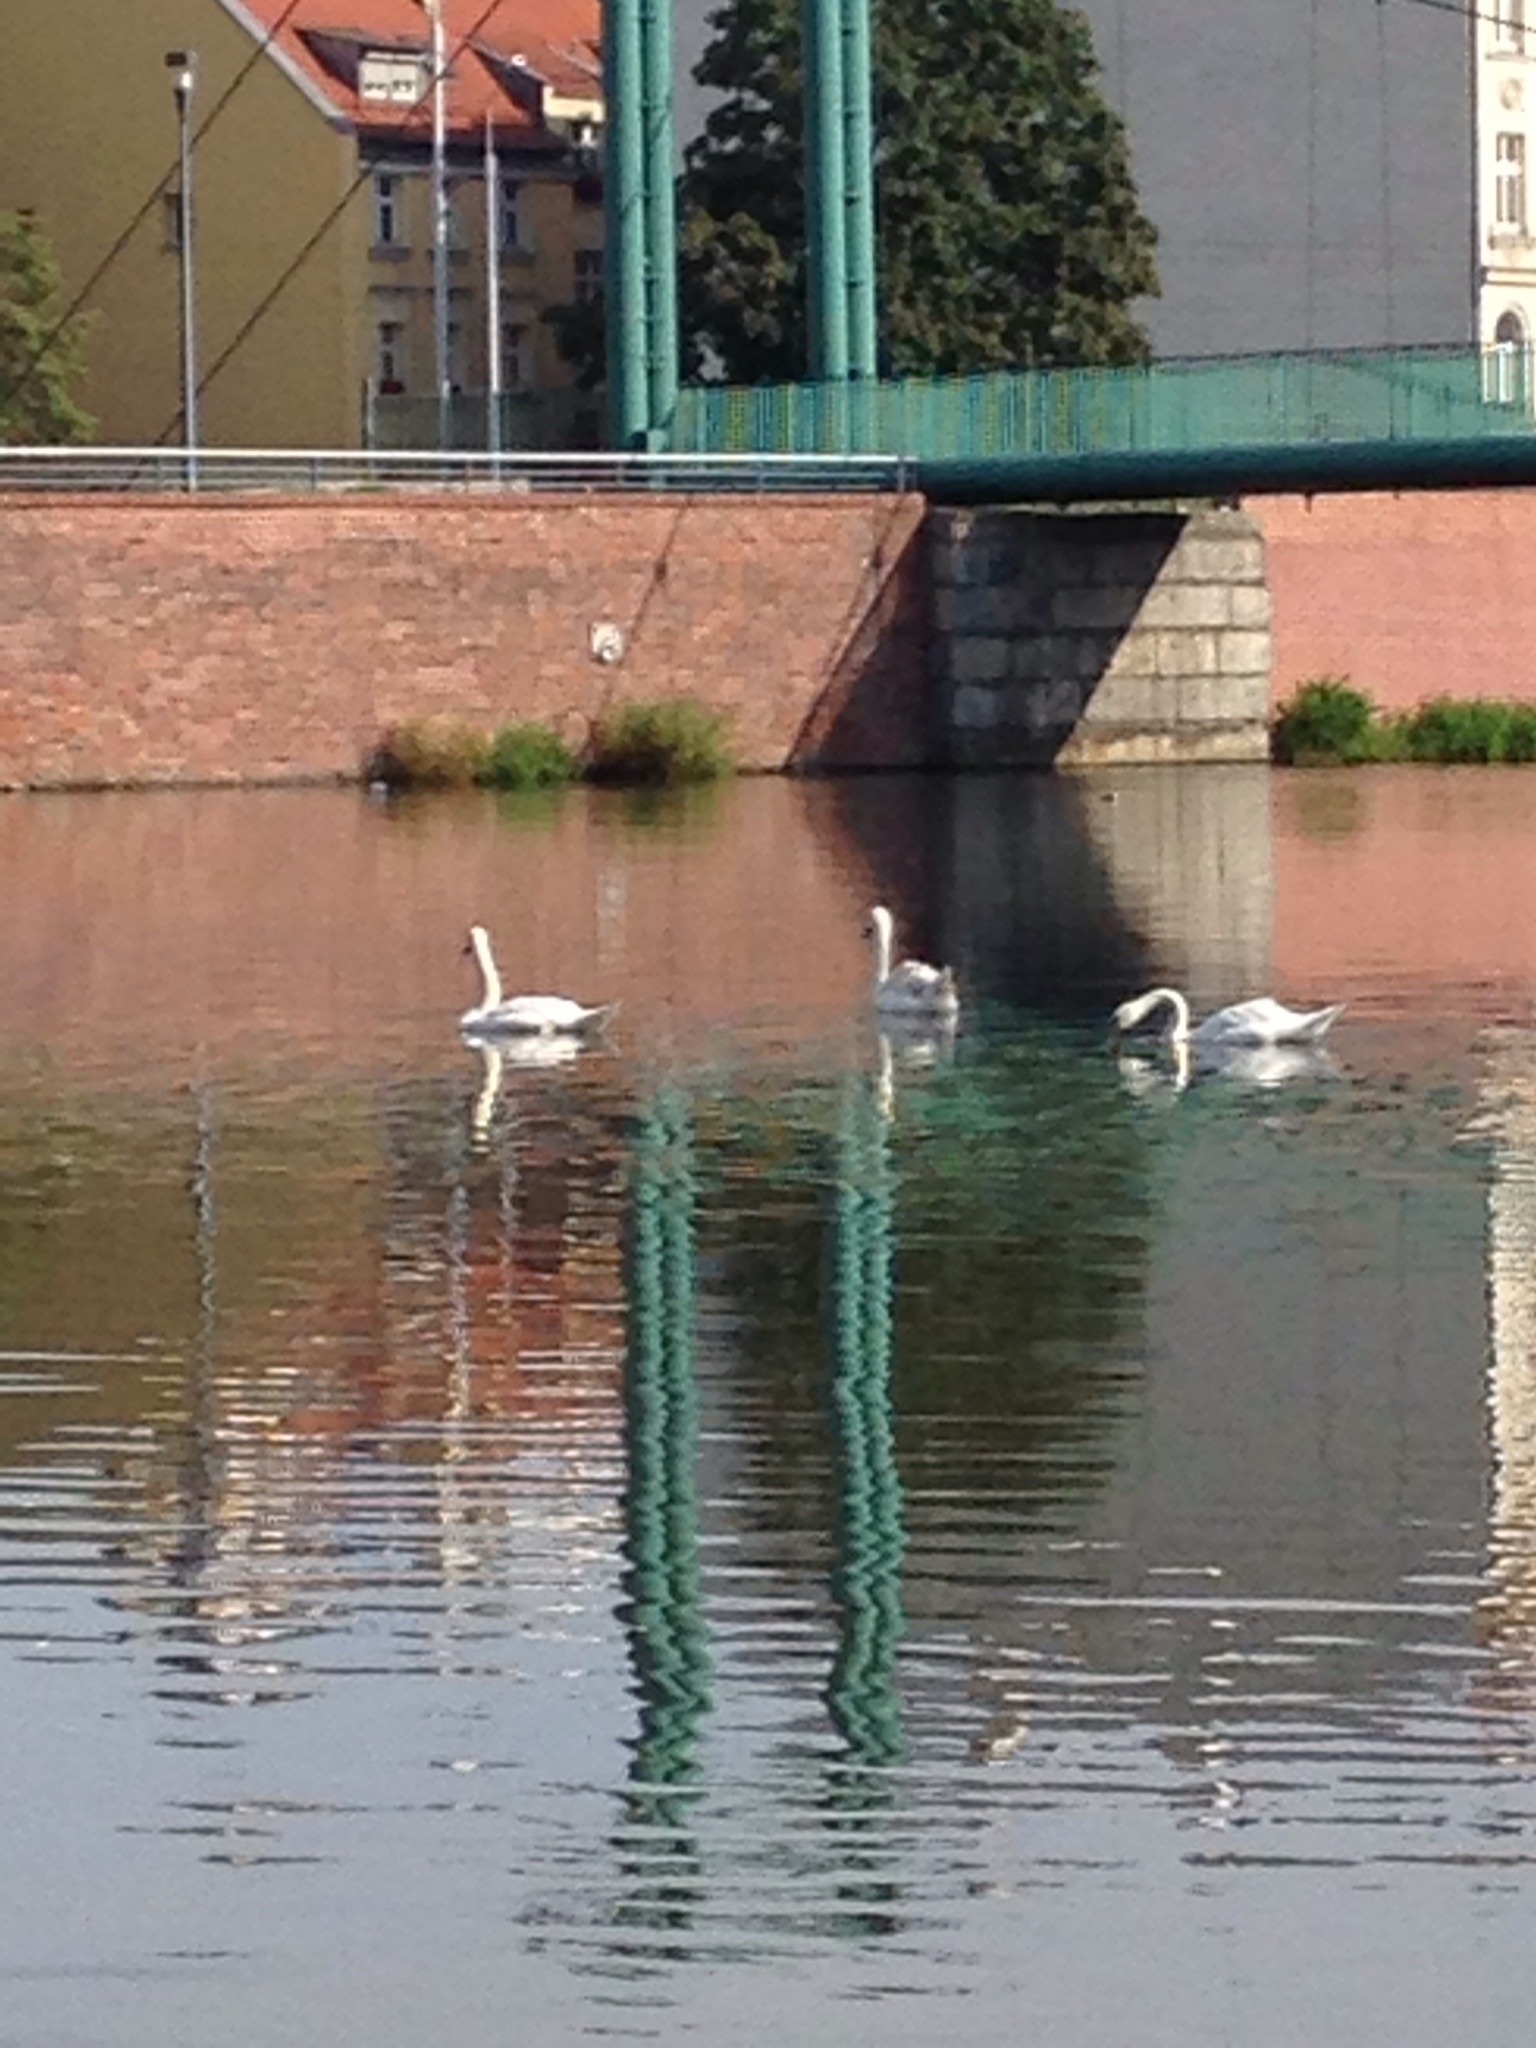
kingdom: Animalia
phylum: Chordata
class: Aves
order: Anseriformes
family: Anatidae
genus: Cygnus
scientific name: Cygnus olor
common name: Mute swan
